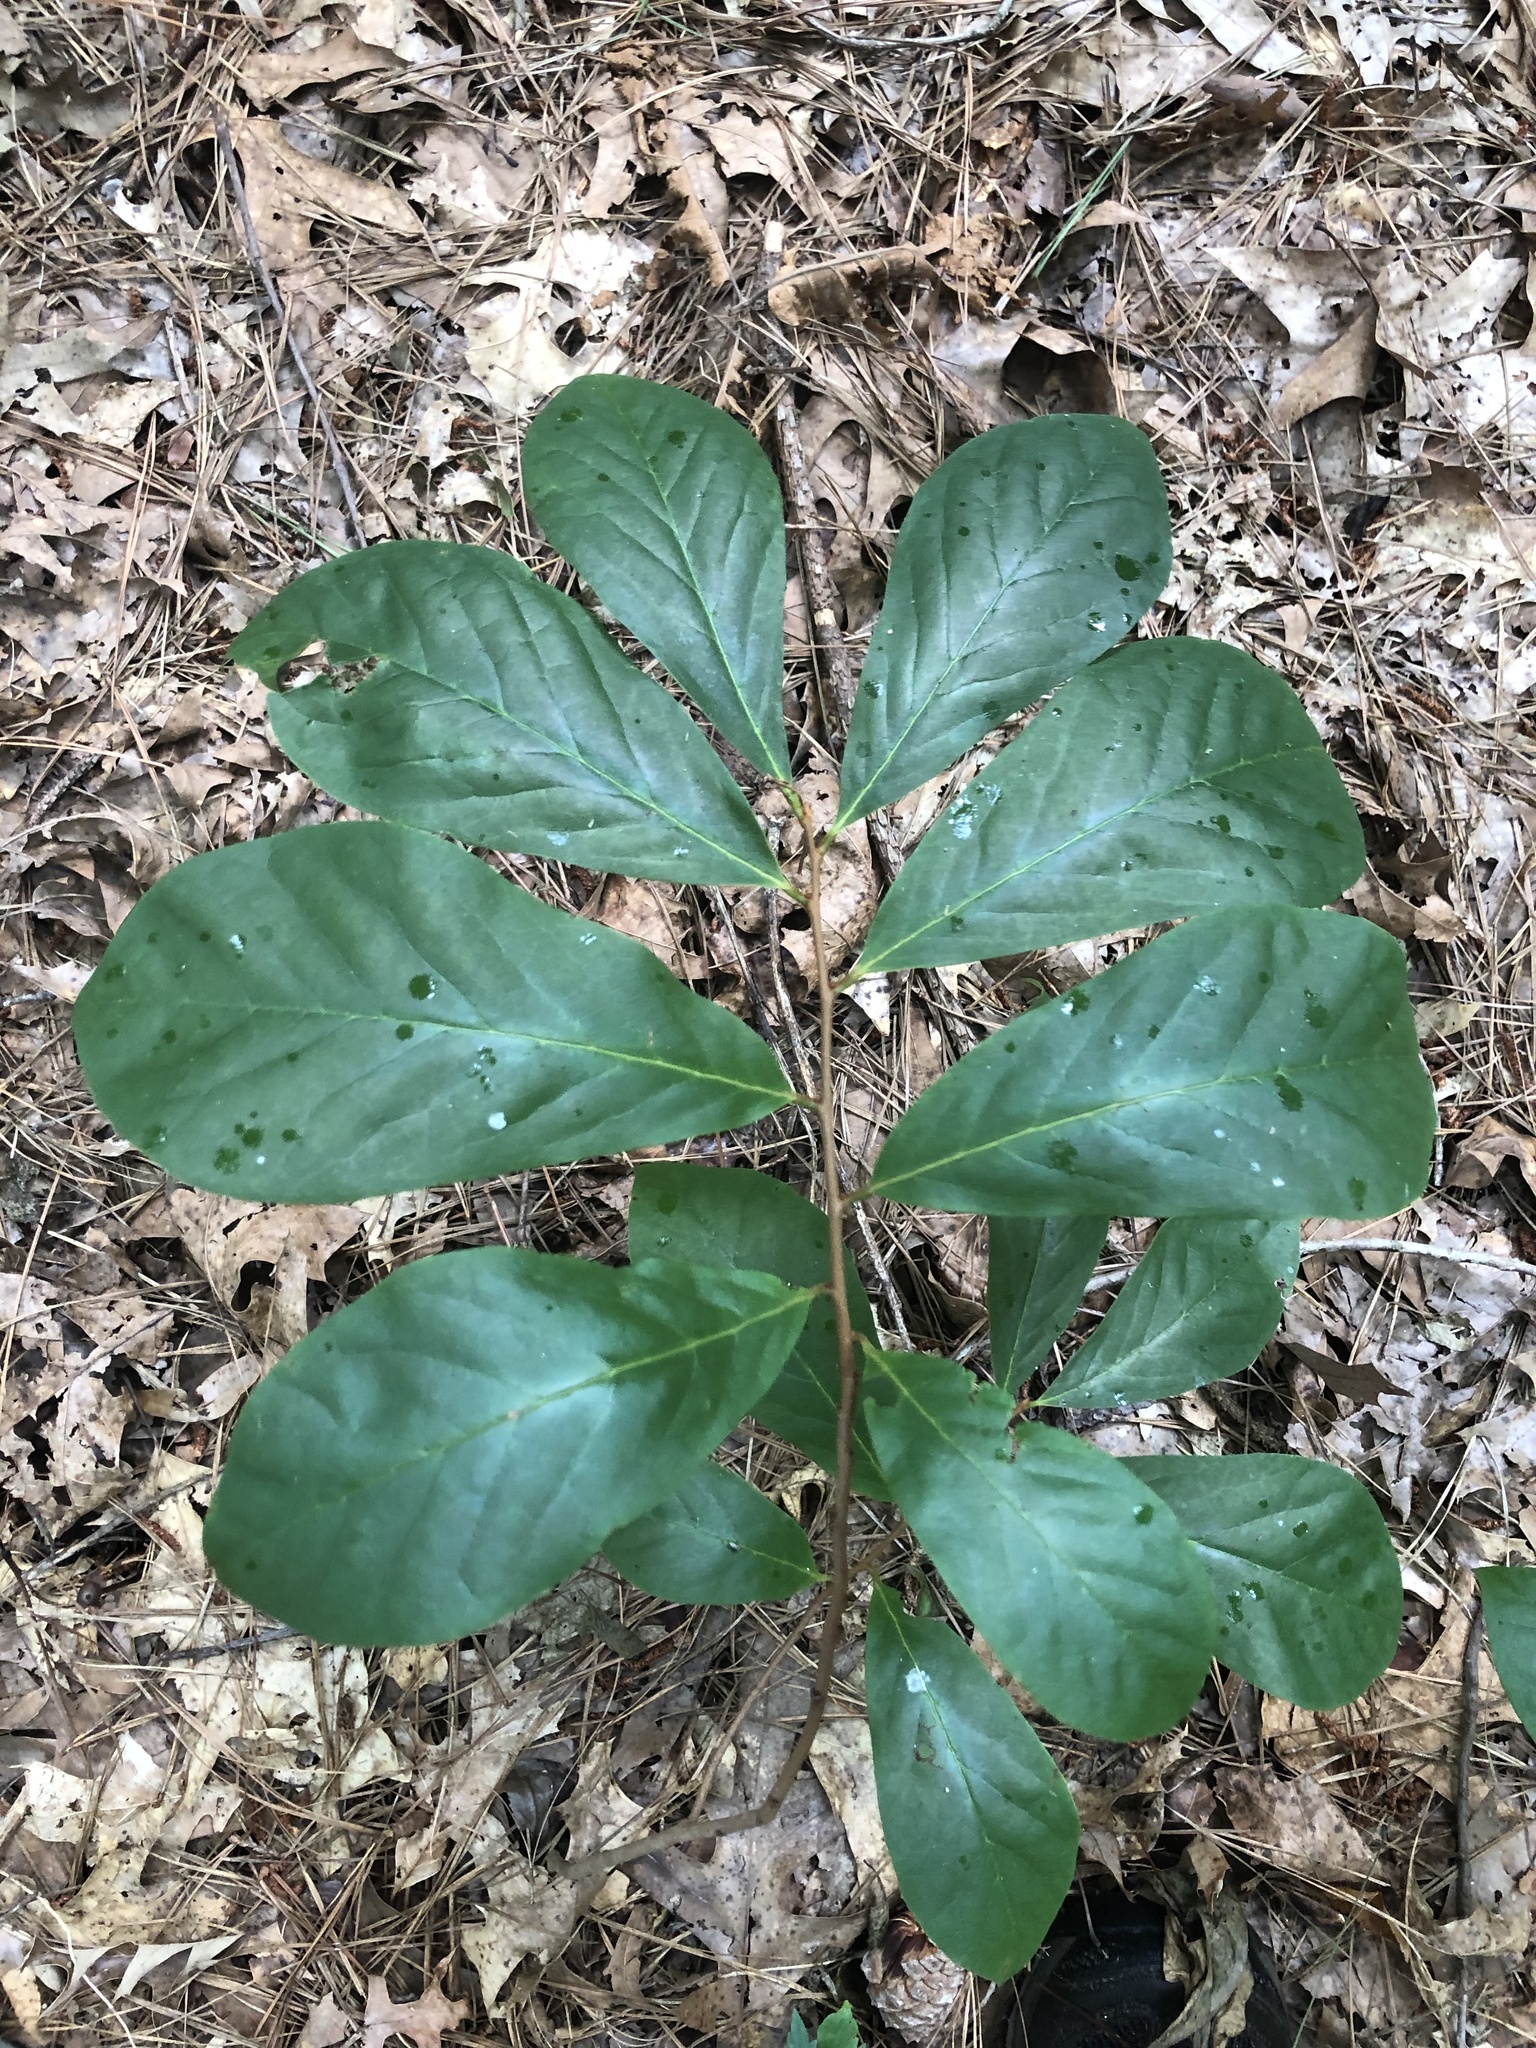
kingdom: Plantae
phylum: Tracheophyta
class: Magnoliopsida
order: Magnoliales
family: Annonaceae
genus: Asimina
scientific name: Asimina parviflora
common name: Dwarf pawpaw
